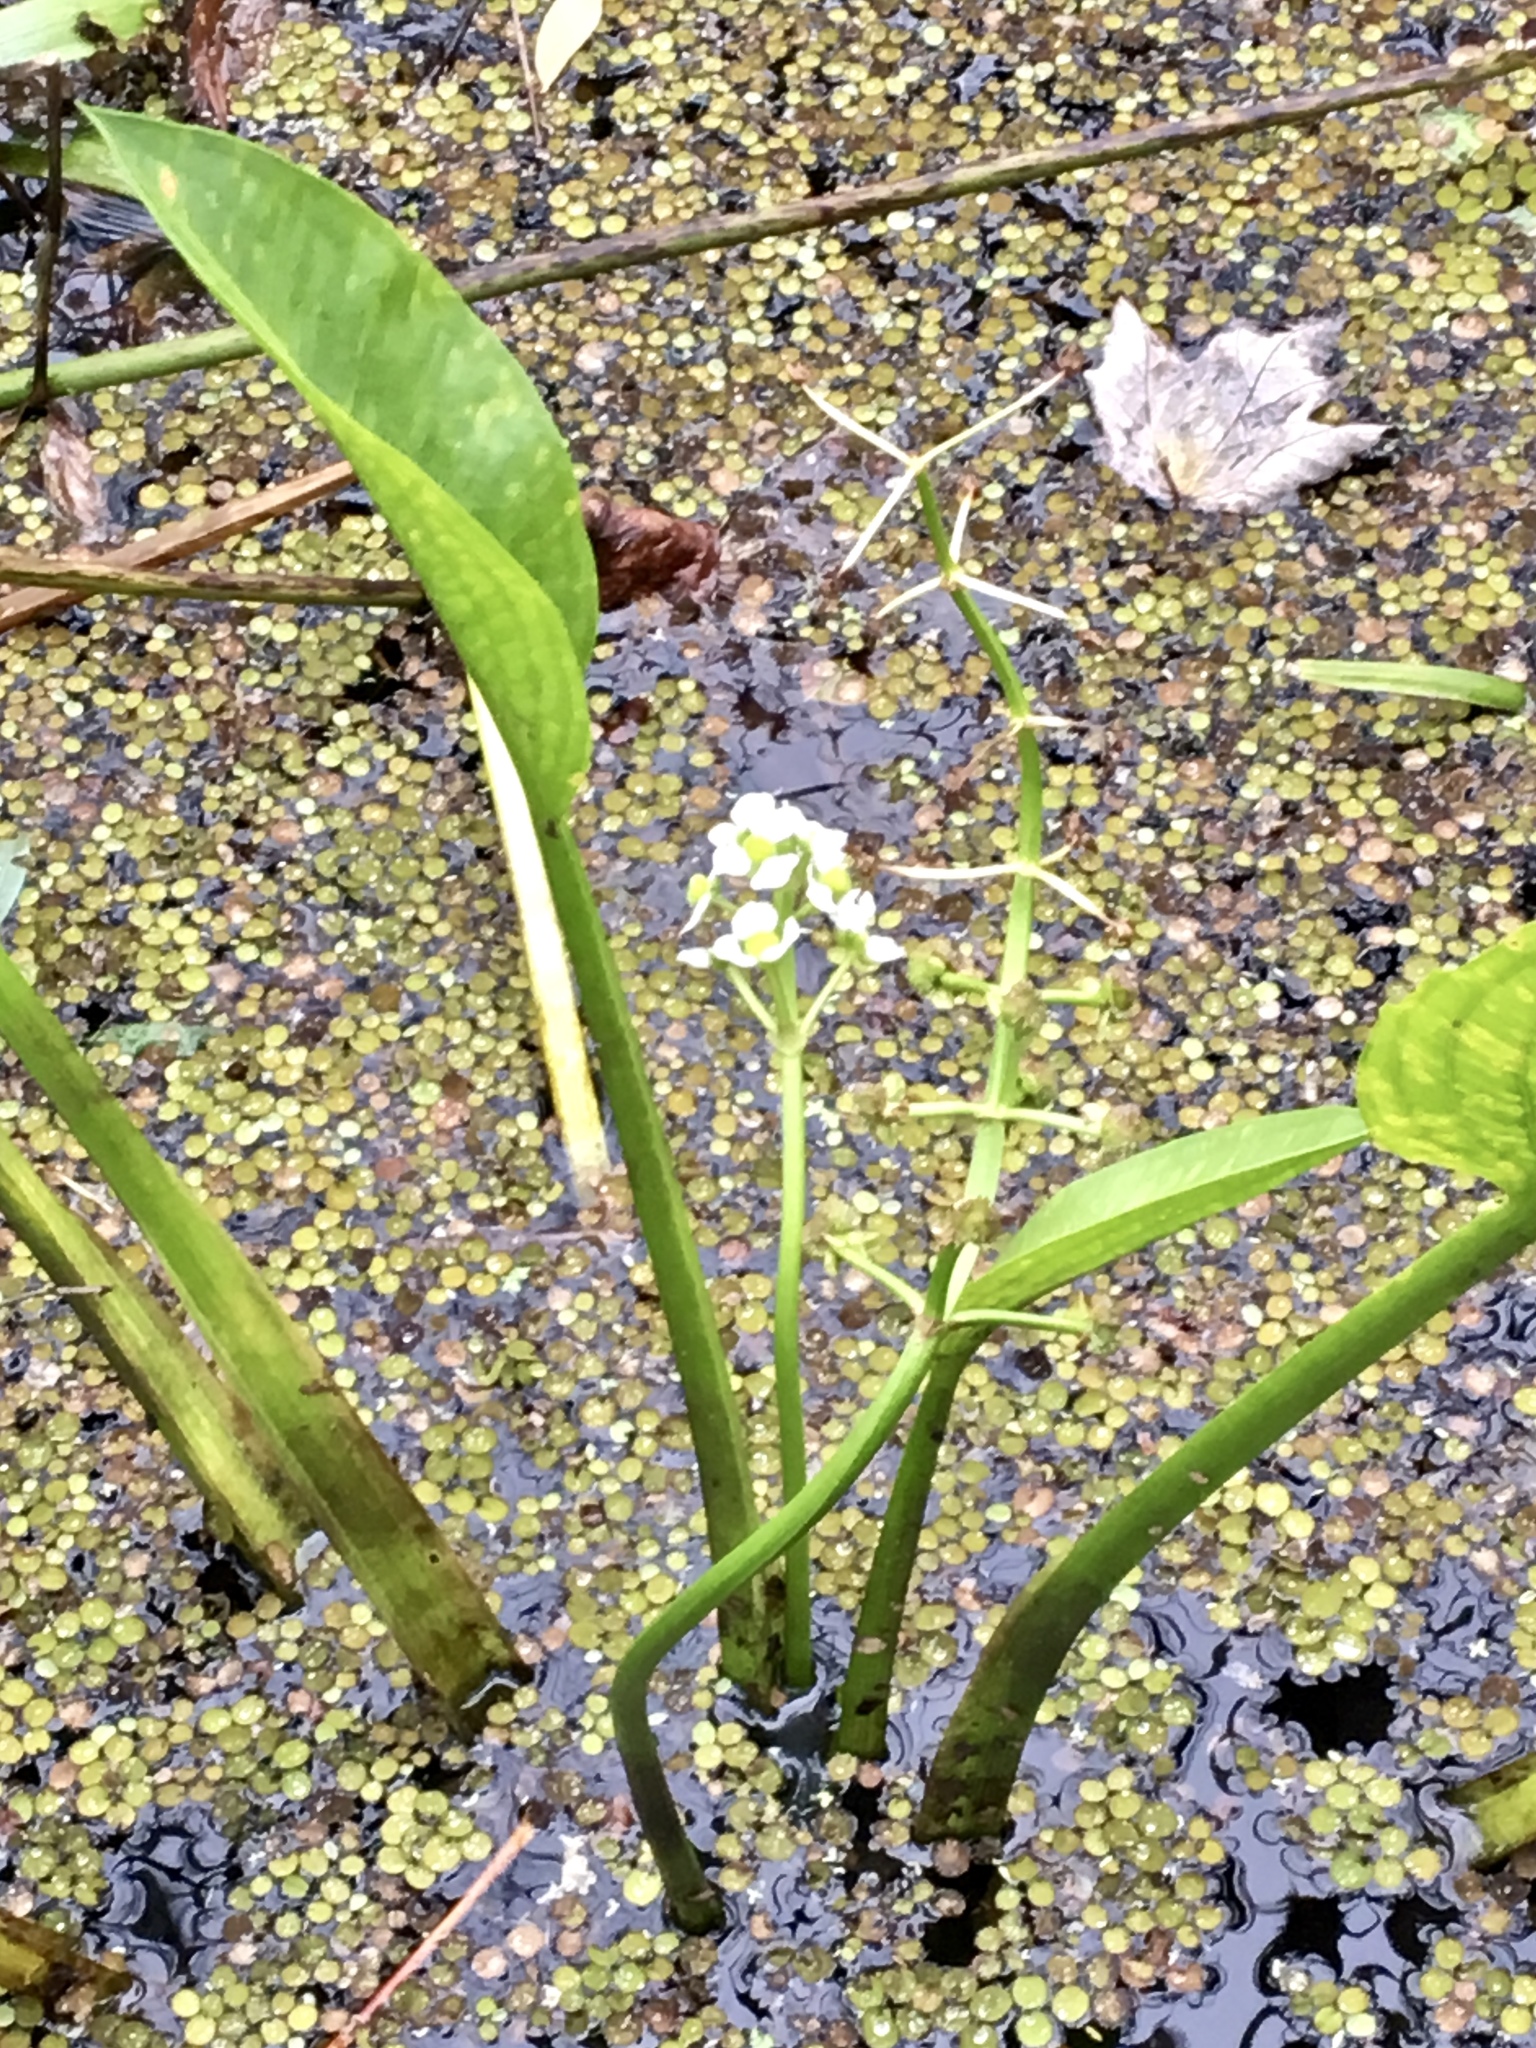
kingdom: Plantae
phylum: Tracheophyta
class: Liliopsida
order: Alismatales
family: Alismataceae
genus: Sagittaria
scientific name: Sagittaria platyphylla
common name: Broad-leaf arrowhead
